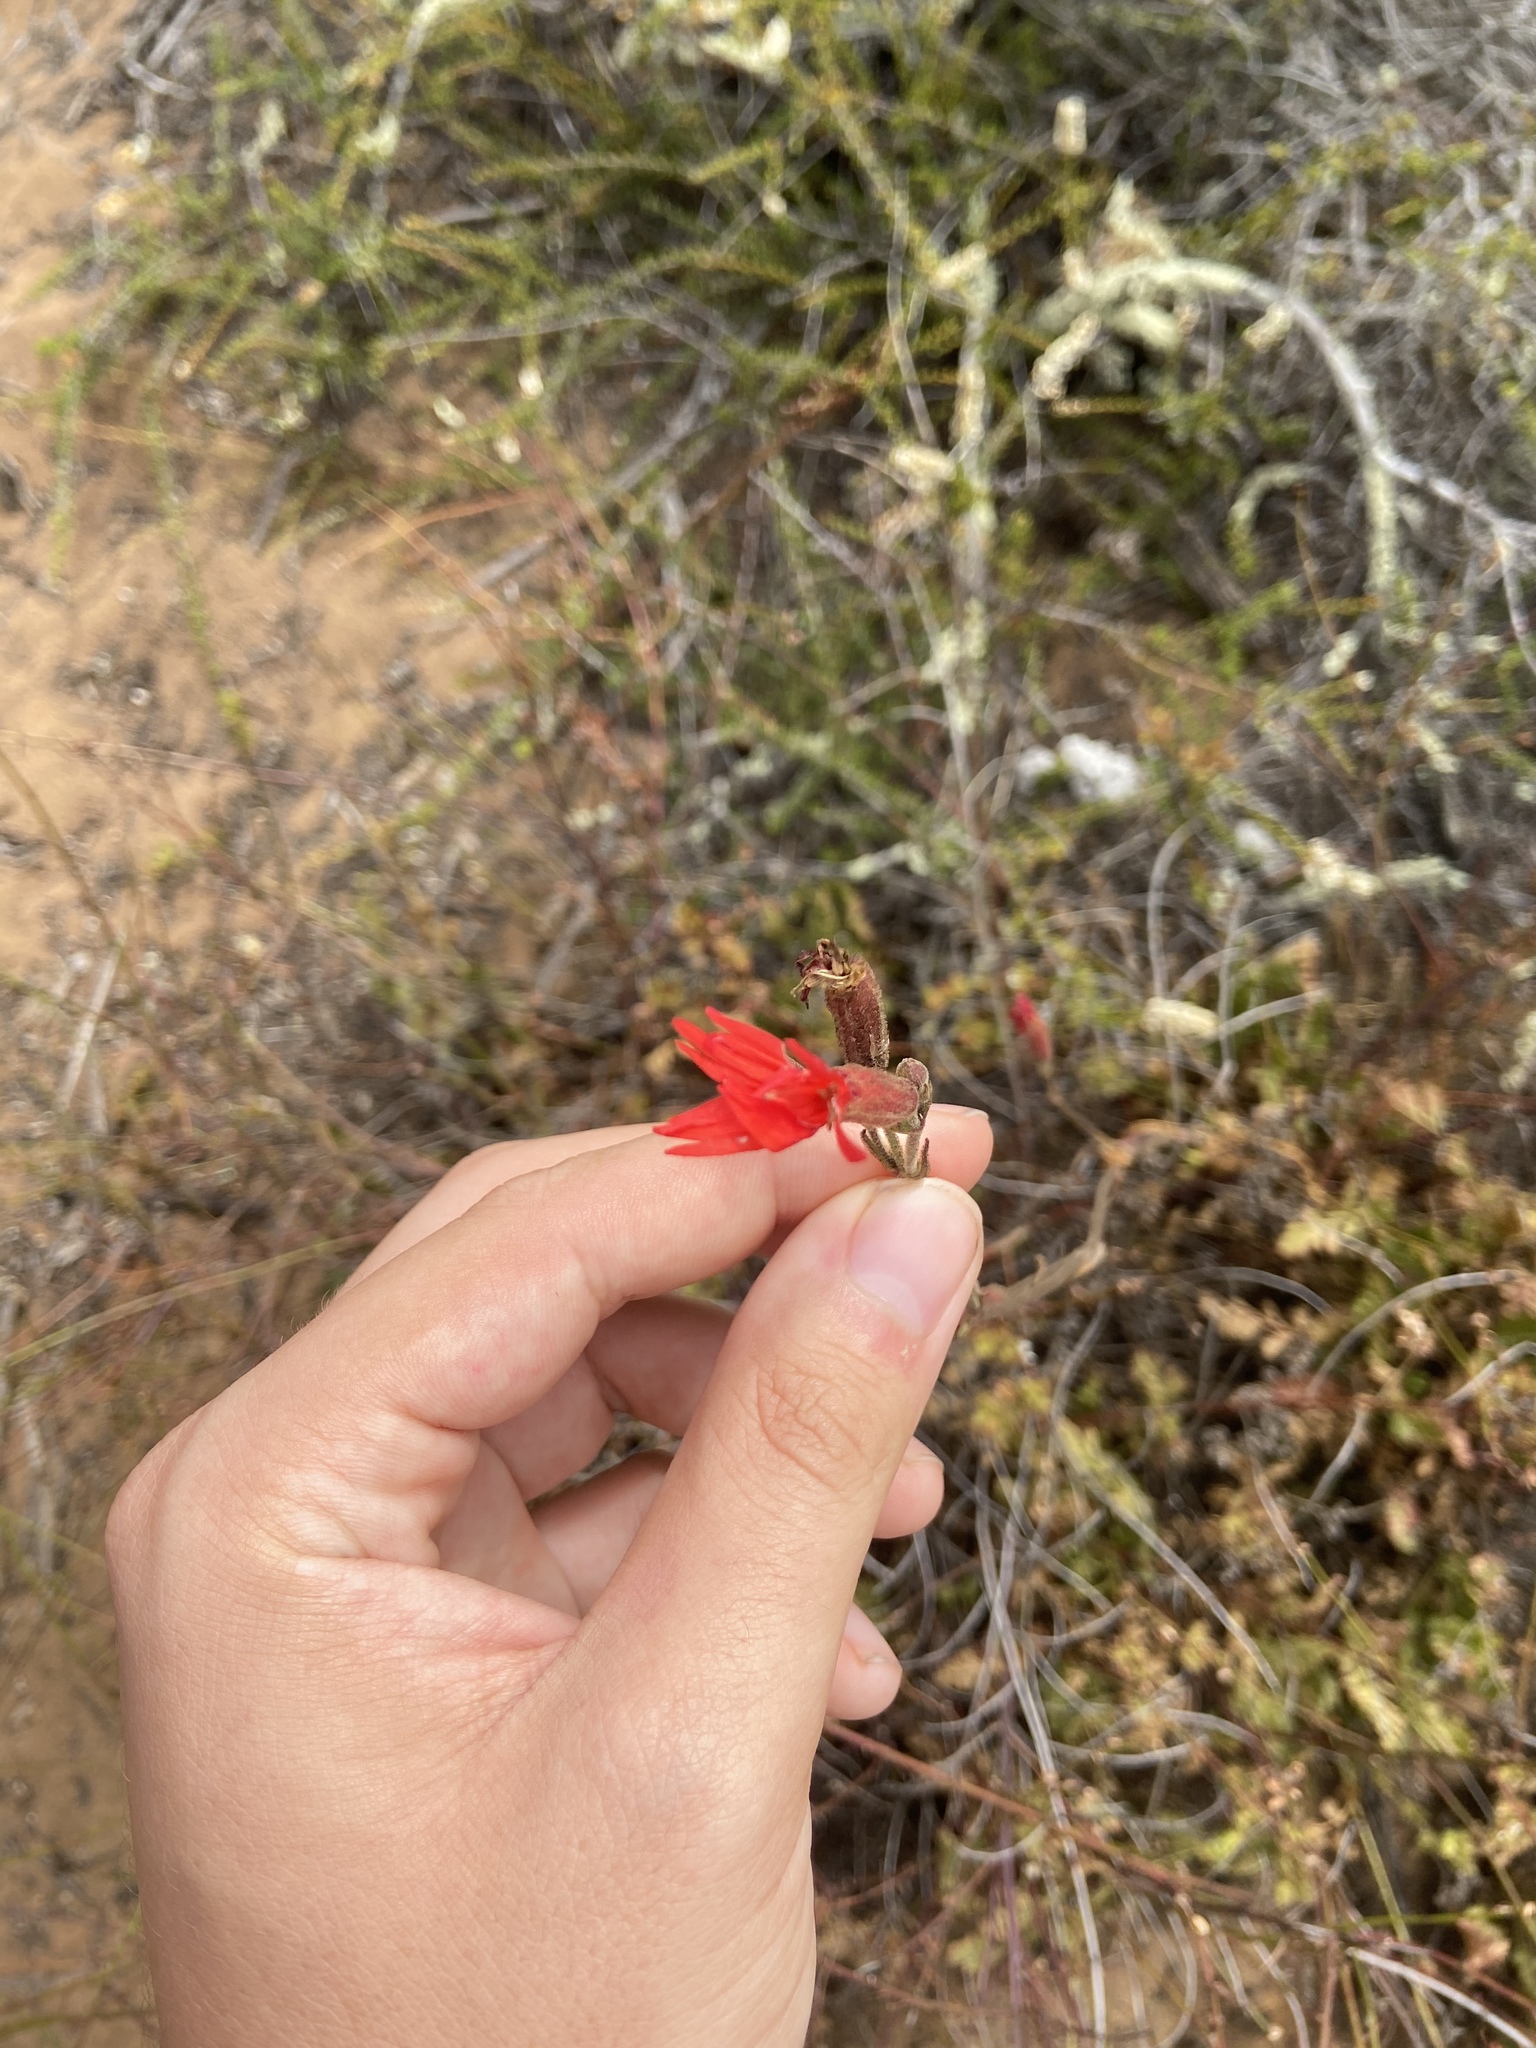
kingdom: Plantae
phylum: Tracheophyta
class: Magnoliopsida
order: Caryophyllales
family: Caryophyllaceae
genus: Silene
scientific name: Silene laciniata
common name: Indian-pink
